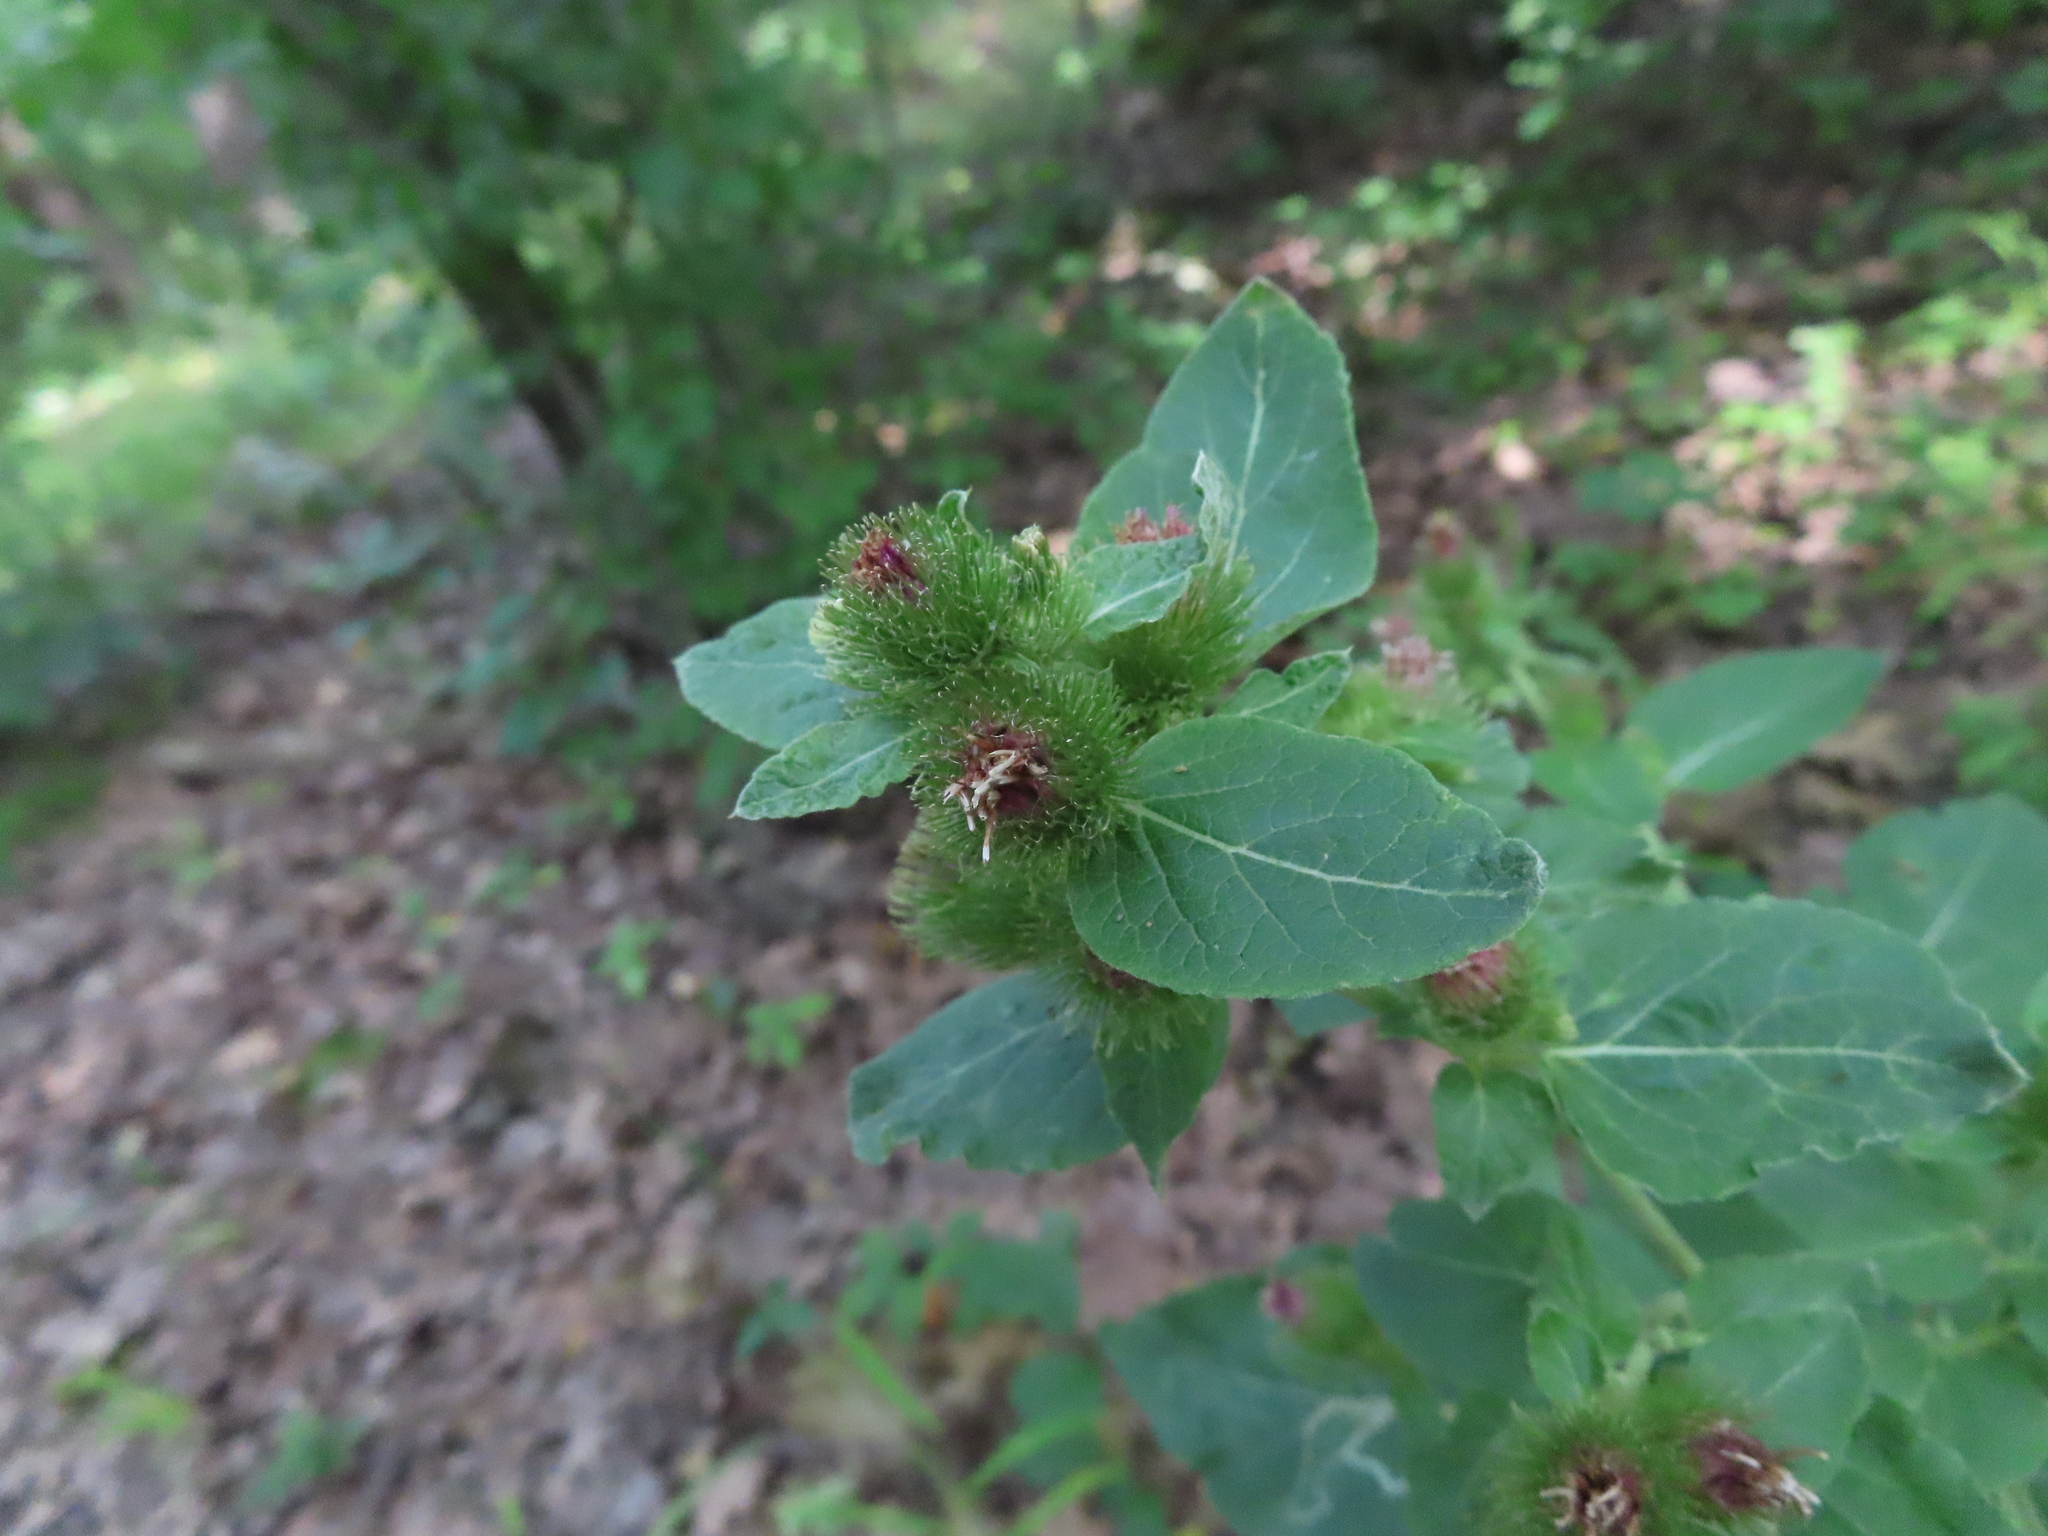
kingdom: Plantae
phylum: Tracheophyta
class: Magnoliopsida
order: Asterales
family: Asteraceae
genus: Arctium
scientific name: Arctium minus
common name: Lesser burdock
